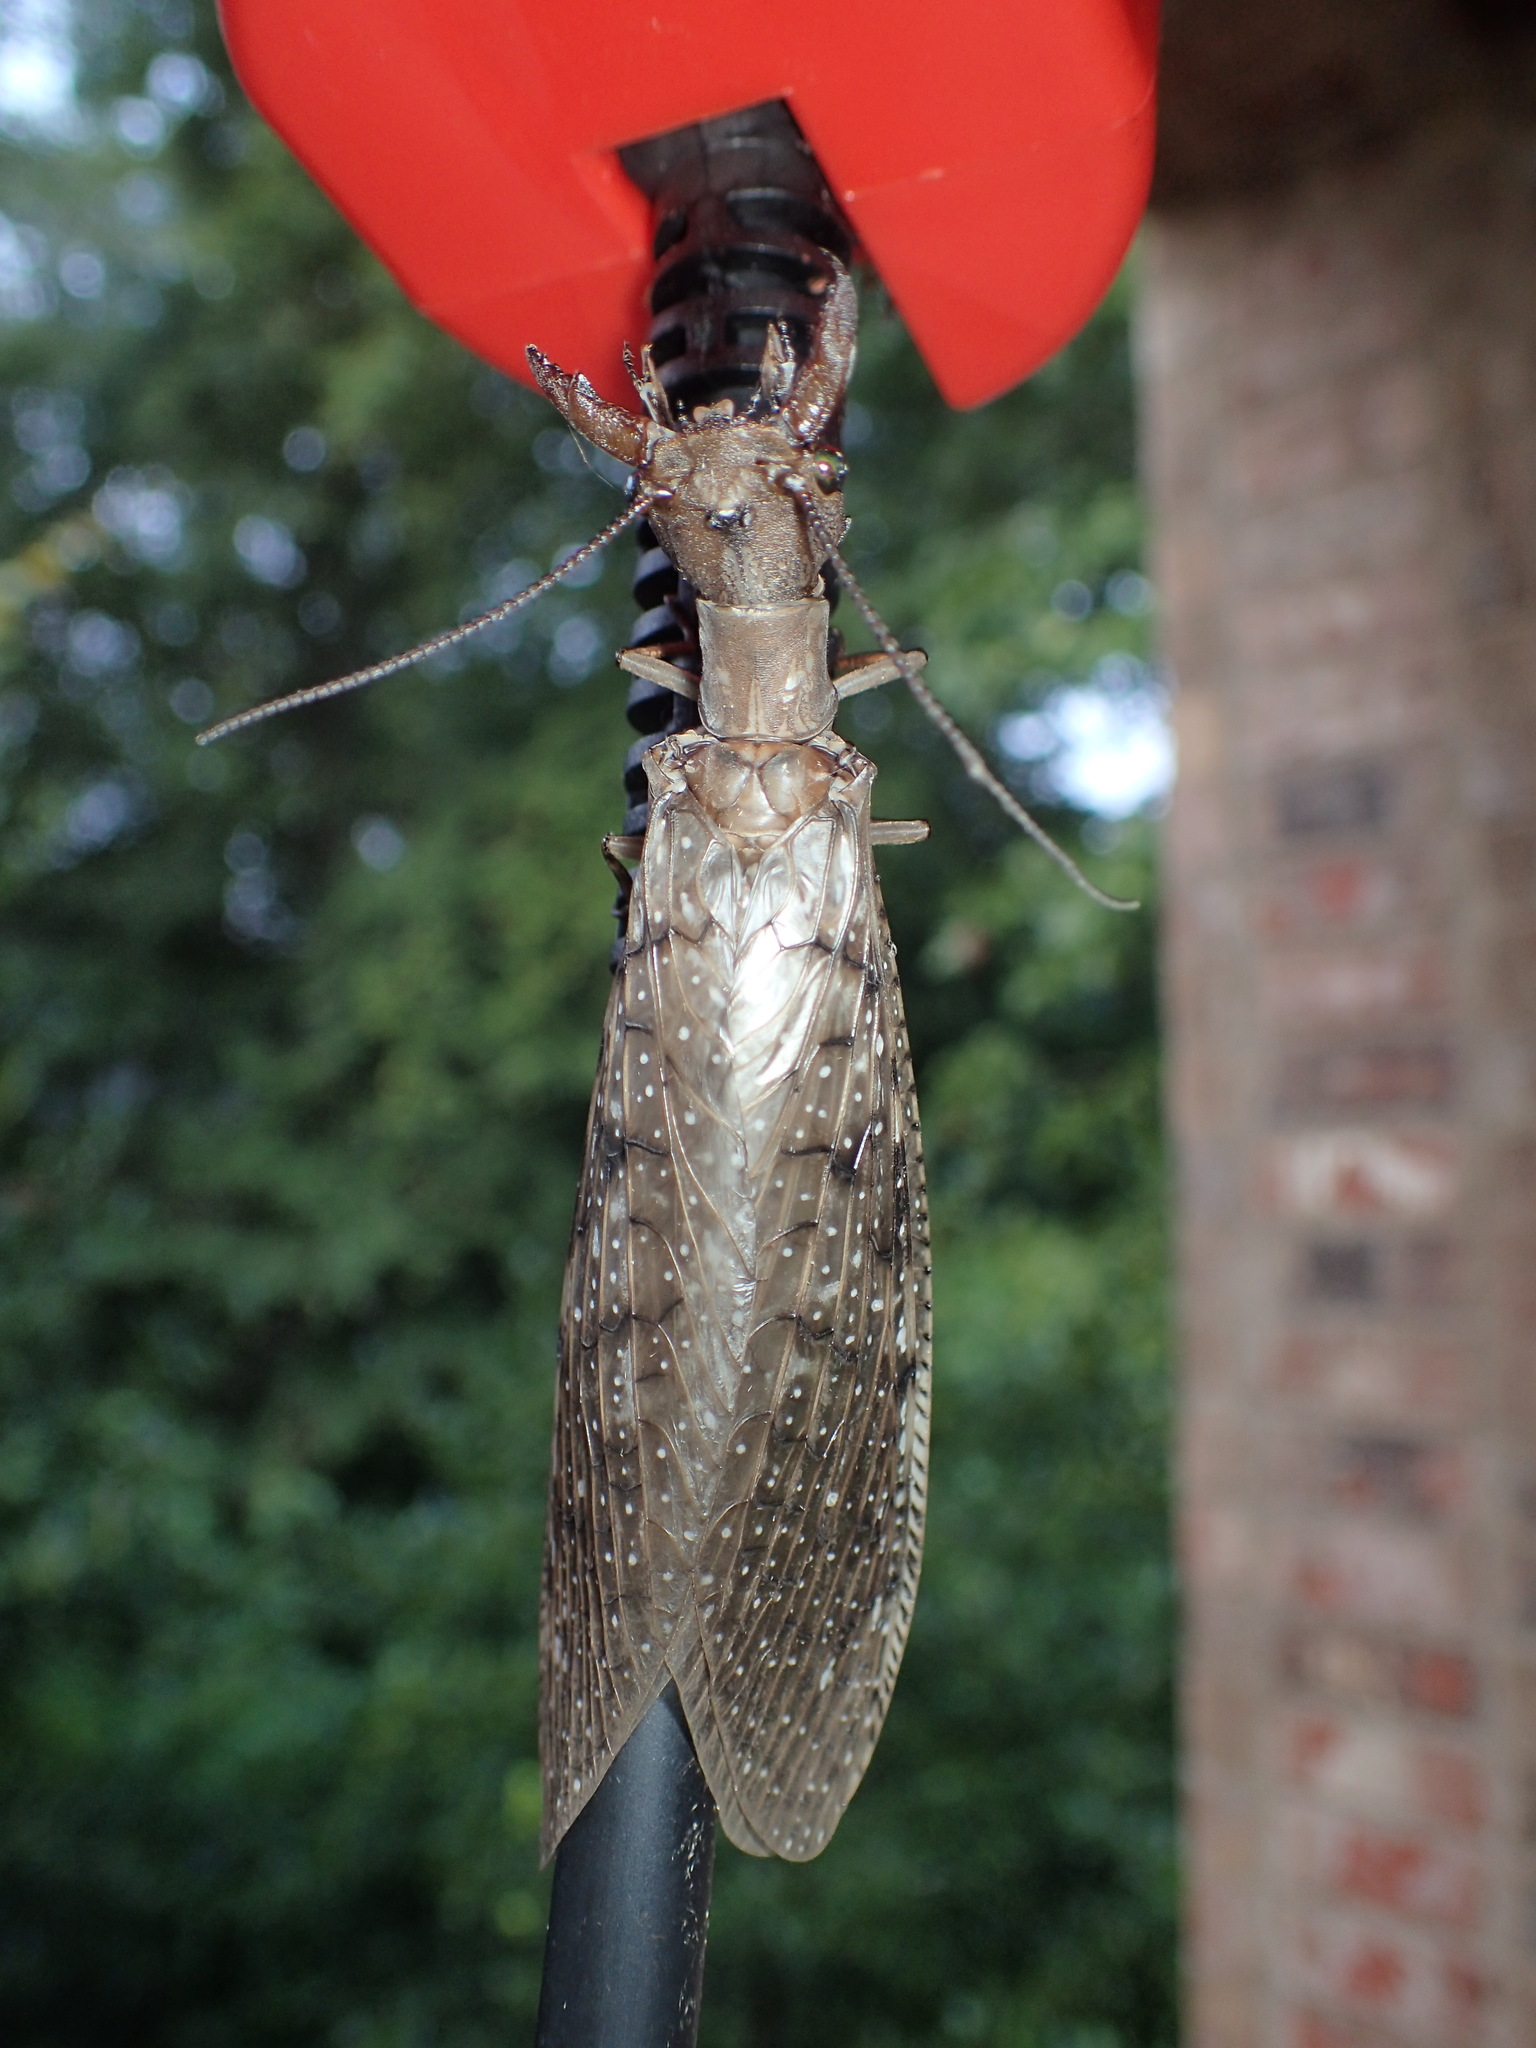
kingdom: Animalia
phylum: Arthropoda
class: Insecta
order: Megaloptera
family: Corydalidae
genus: Corydalus
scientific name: Corydalus cornutus
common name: Dobsonfly
